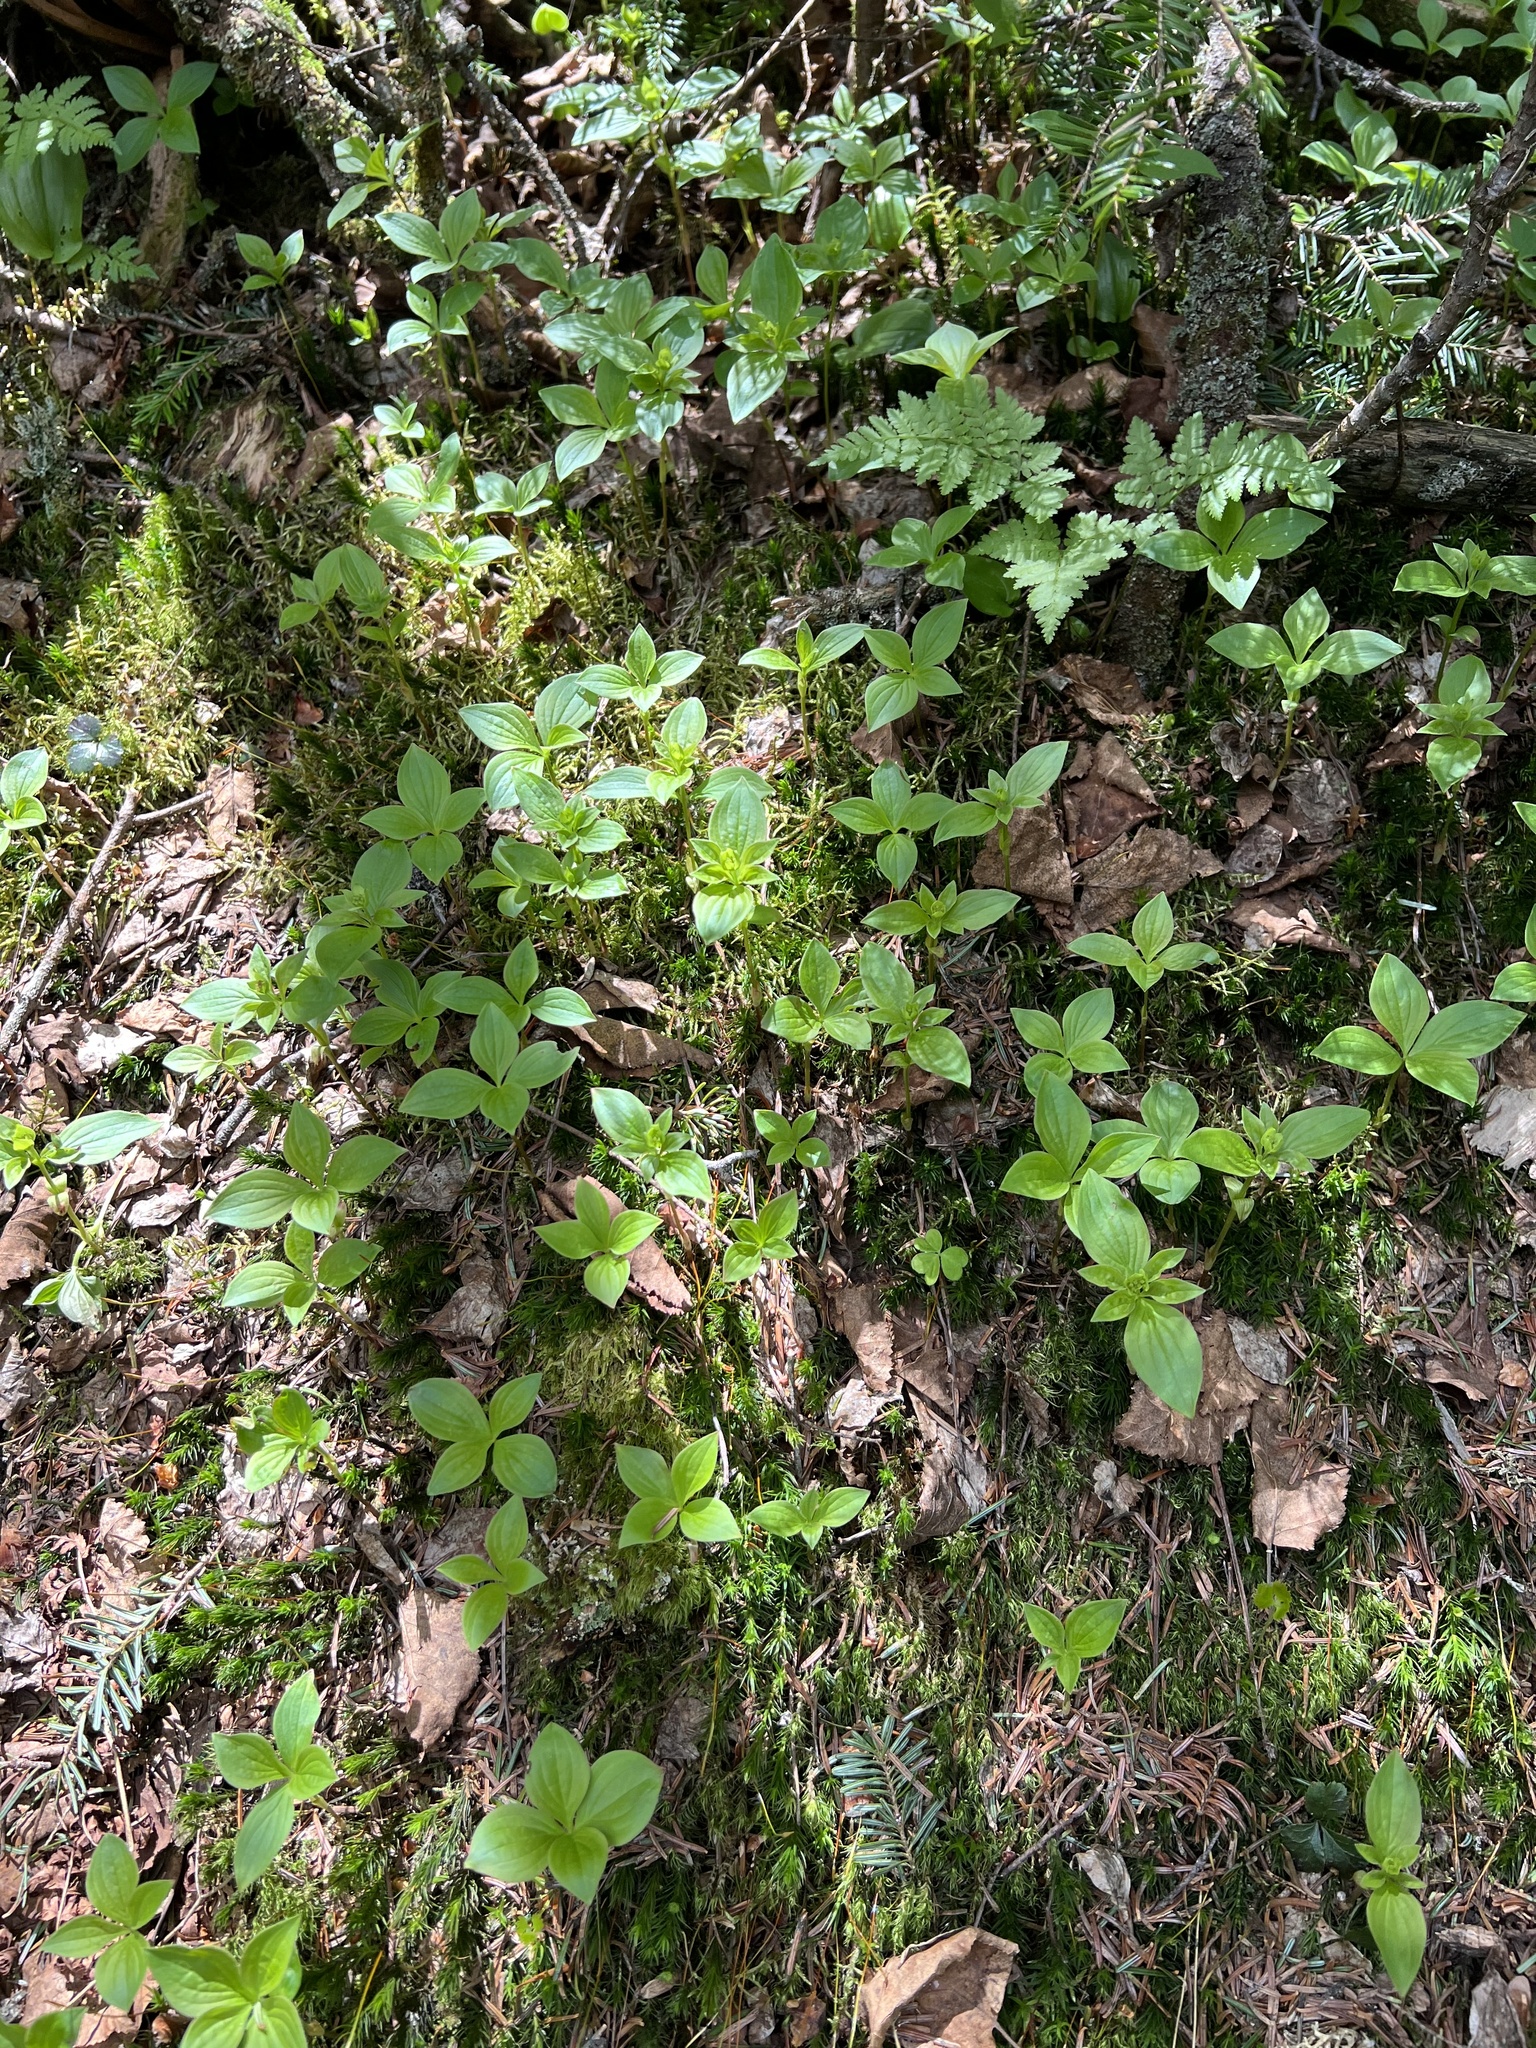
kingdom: Plantae
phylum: Tracheophyta
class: Magnoliopsida
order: Cornales
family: Cornaceae
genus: Cornus
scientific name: Cornus canadensis
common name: Creeping dogwood
